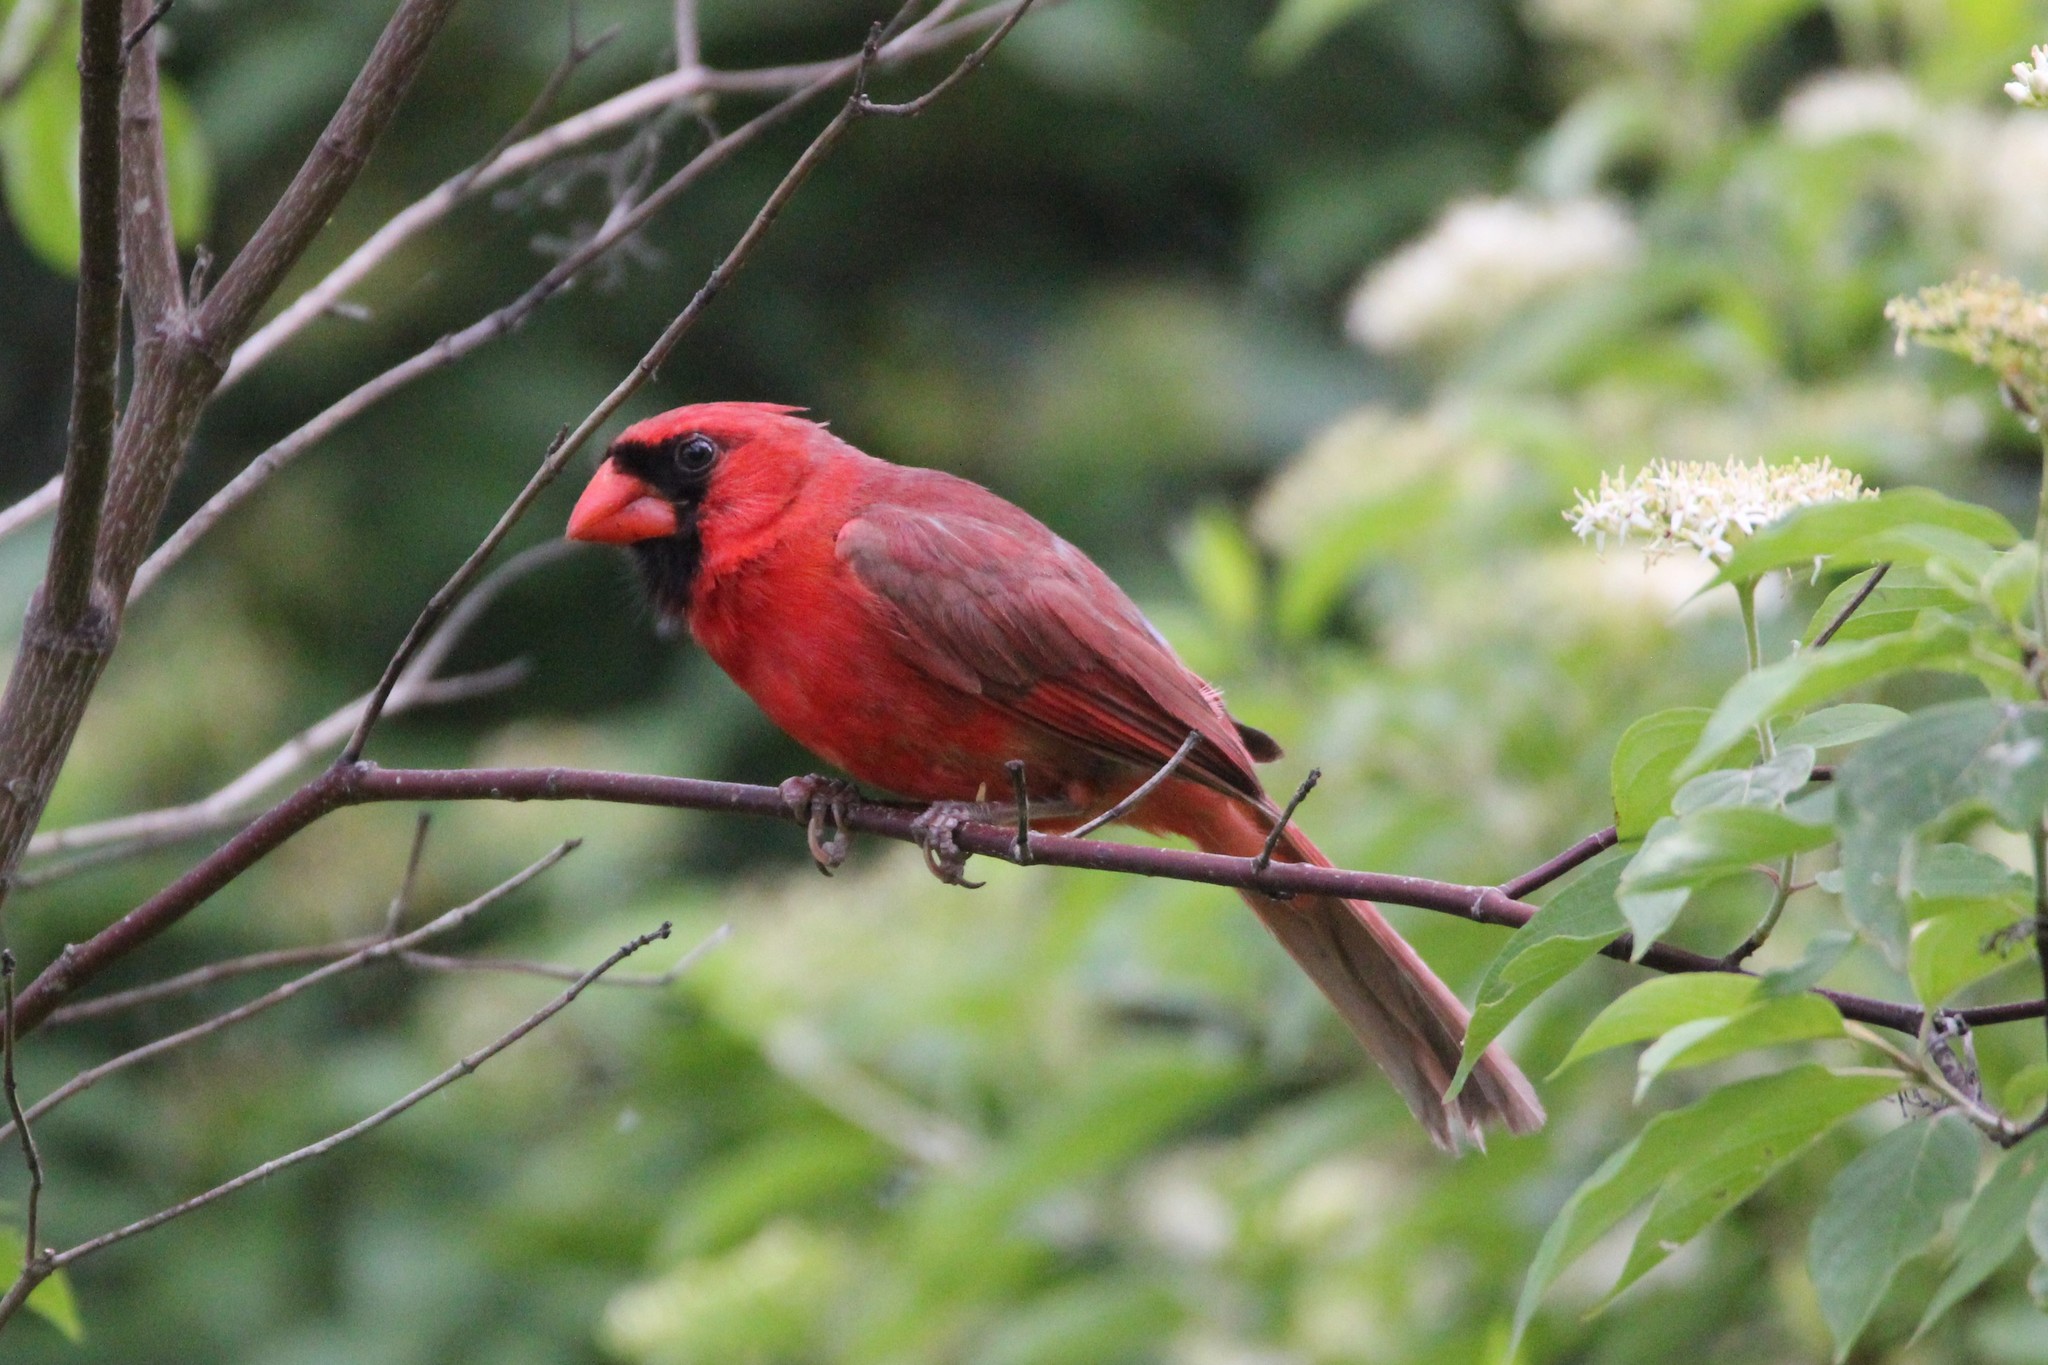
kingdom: Animalia
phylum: Chordata
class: Aves
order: Passeriformes
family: Cardinalidae
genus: Cardinalis
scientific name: Cardinalis cardinalis
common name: Northern cardinal
